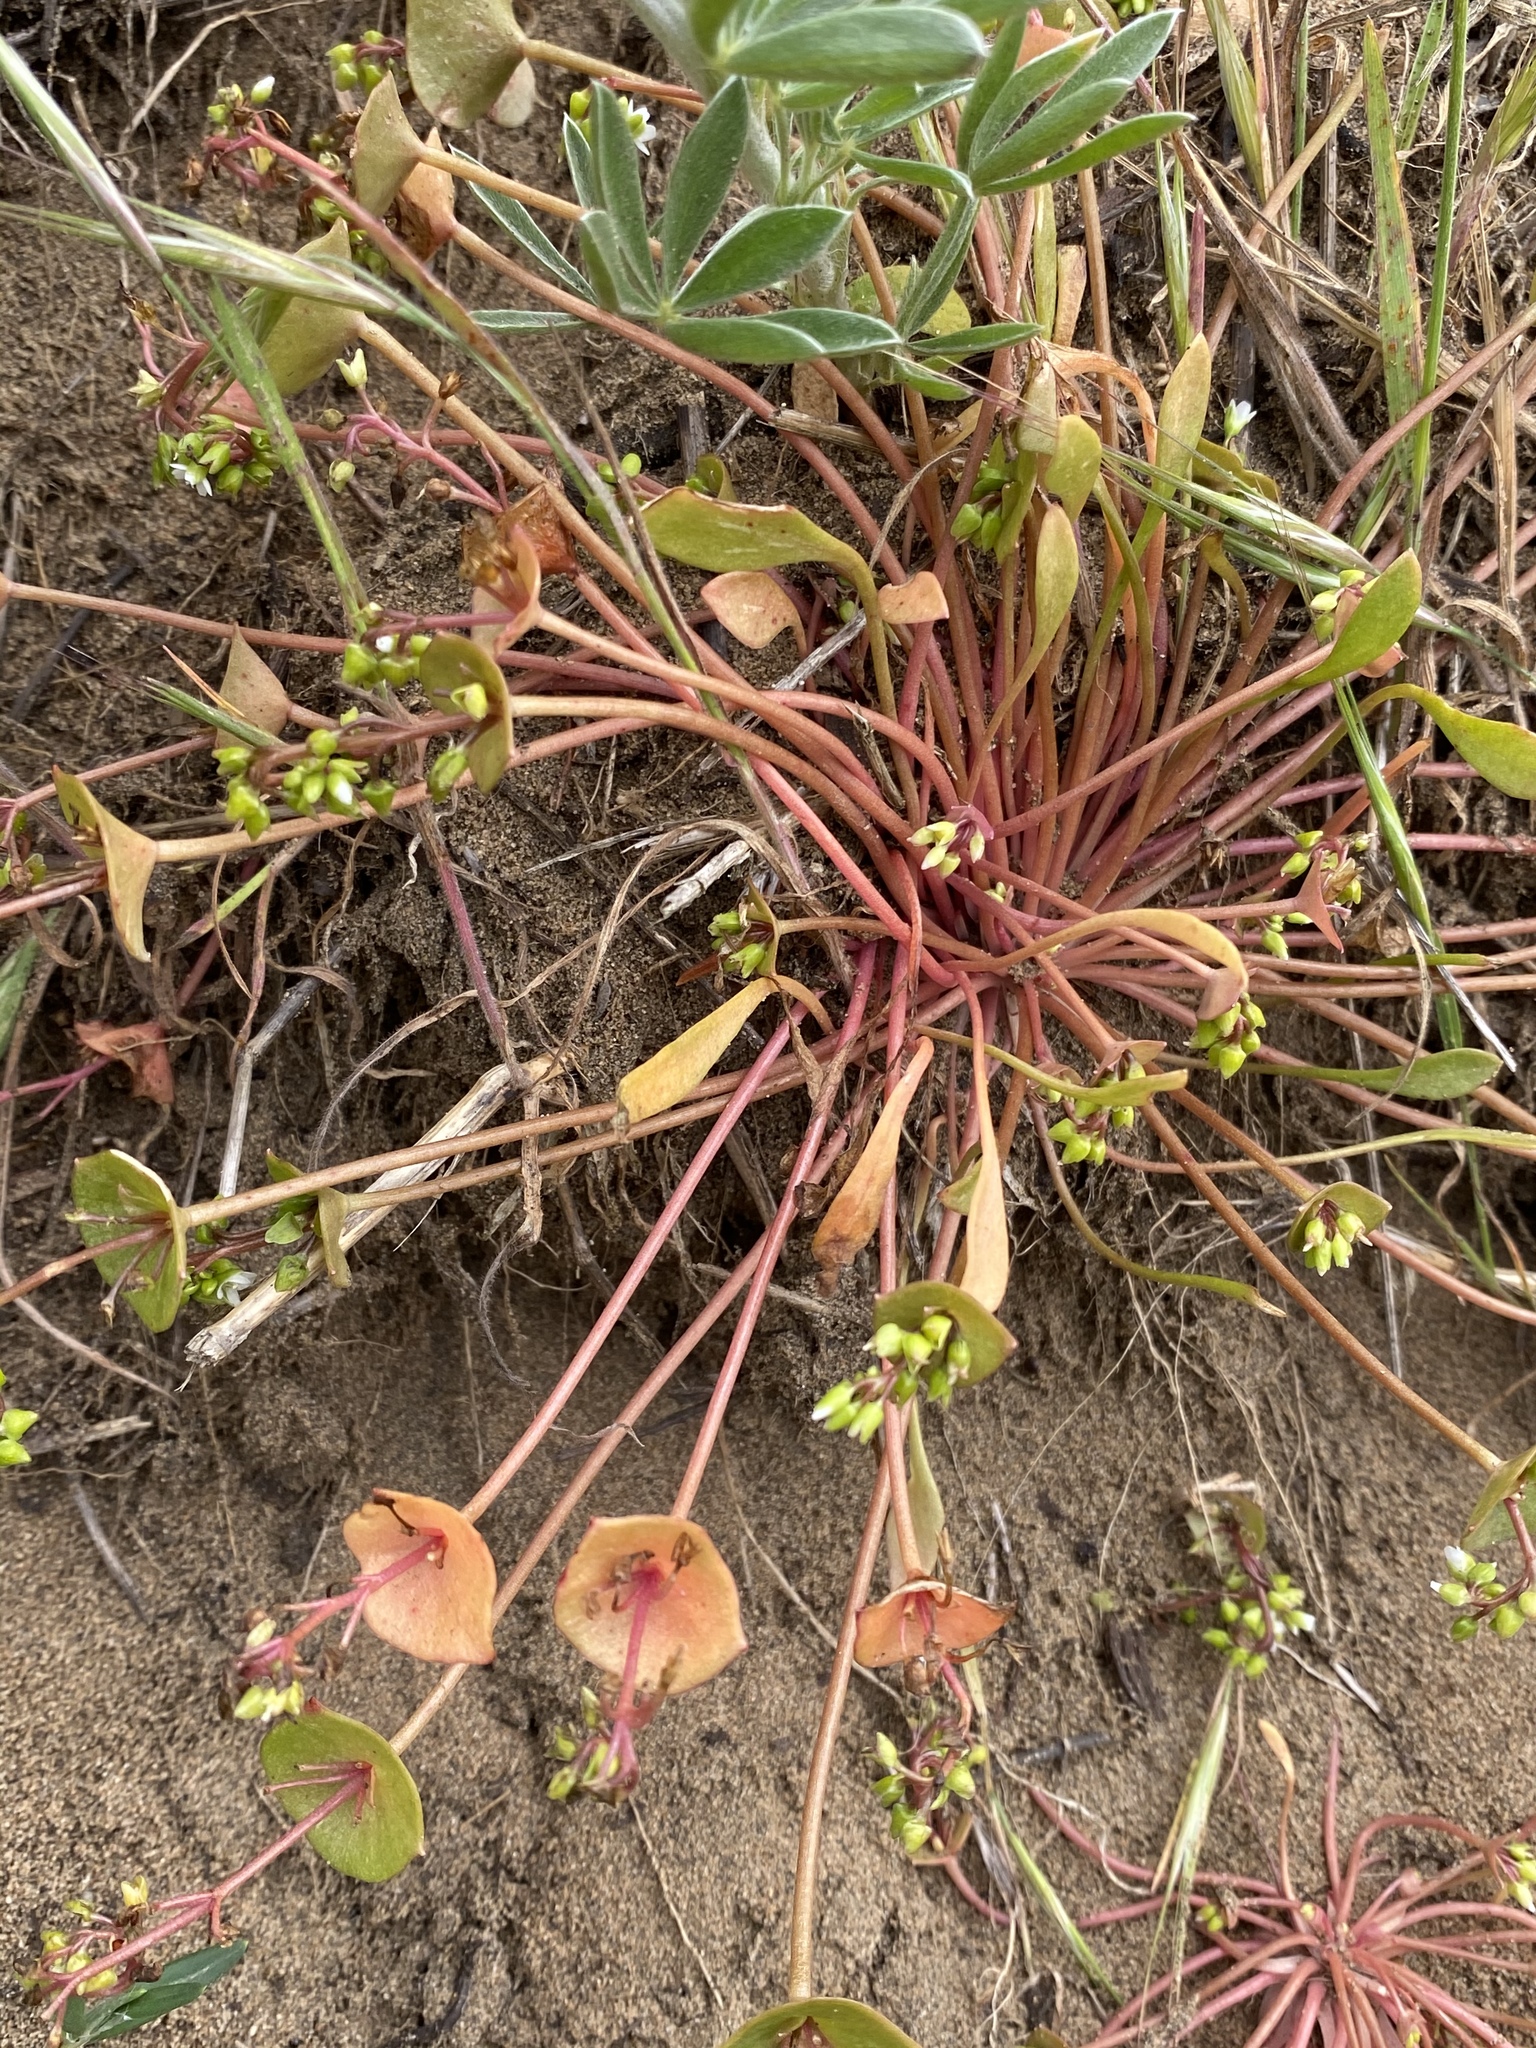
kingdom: Plantae
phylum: Tracheophyta
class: Magnoliopsida
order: Caryophyllales
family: Montiaceae
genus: Claytonia
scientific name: Claytonia perfoliata
